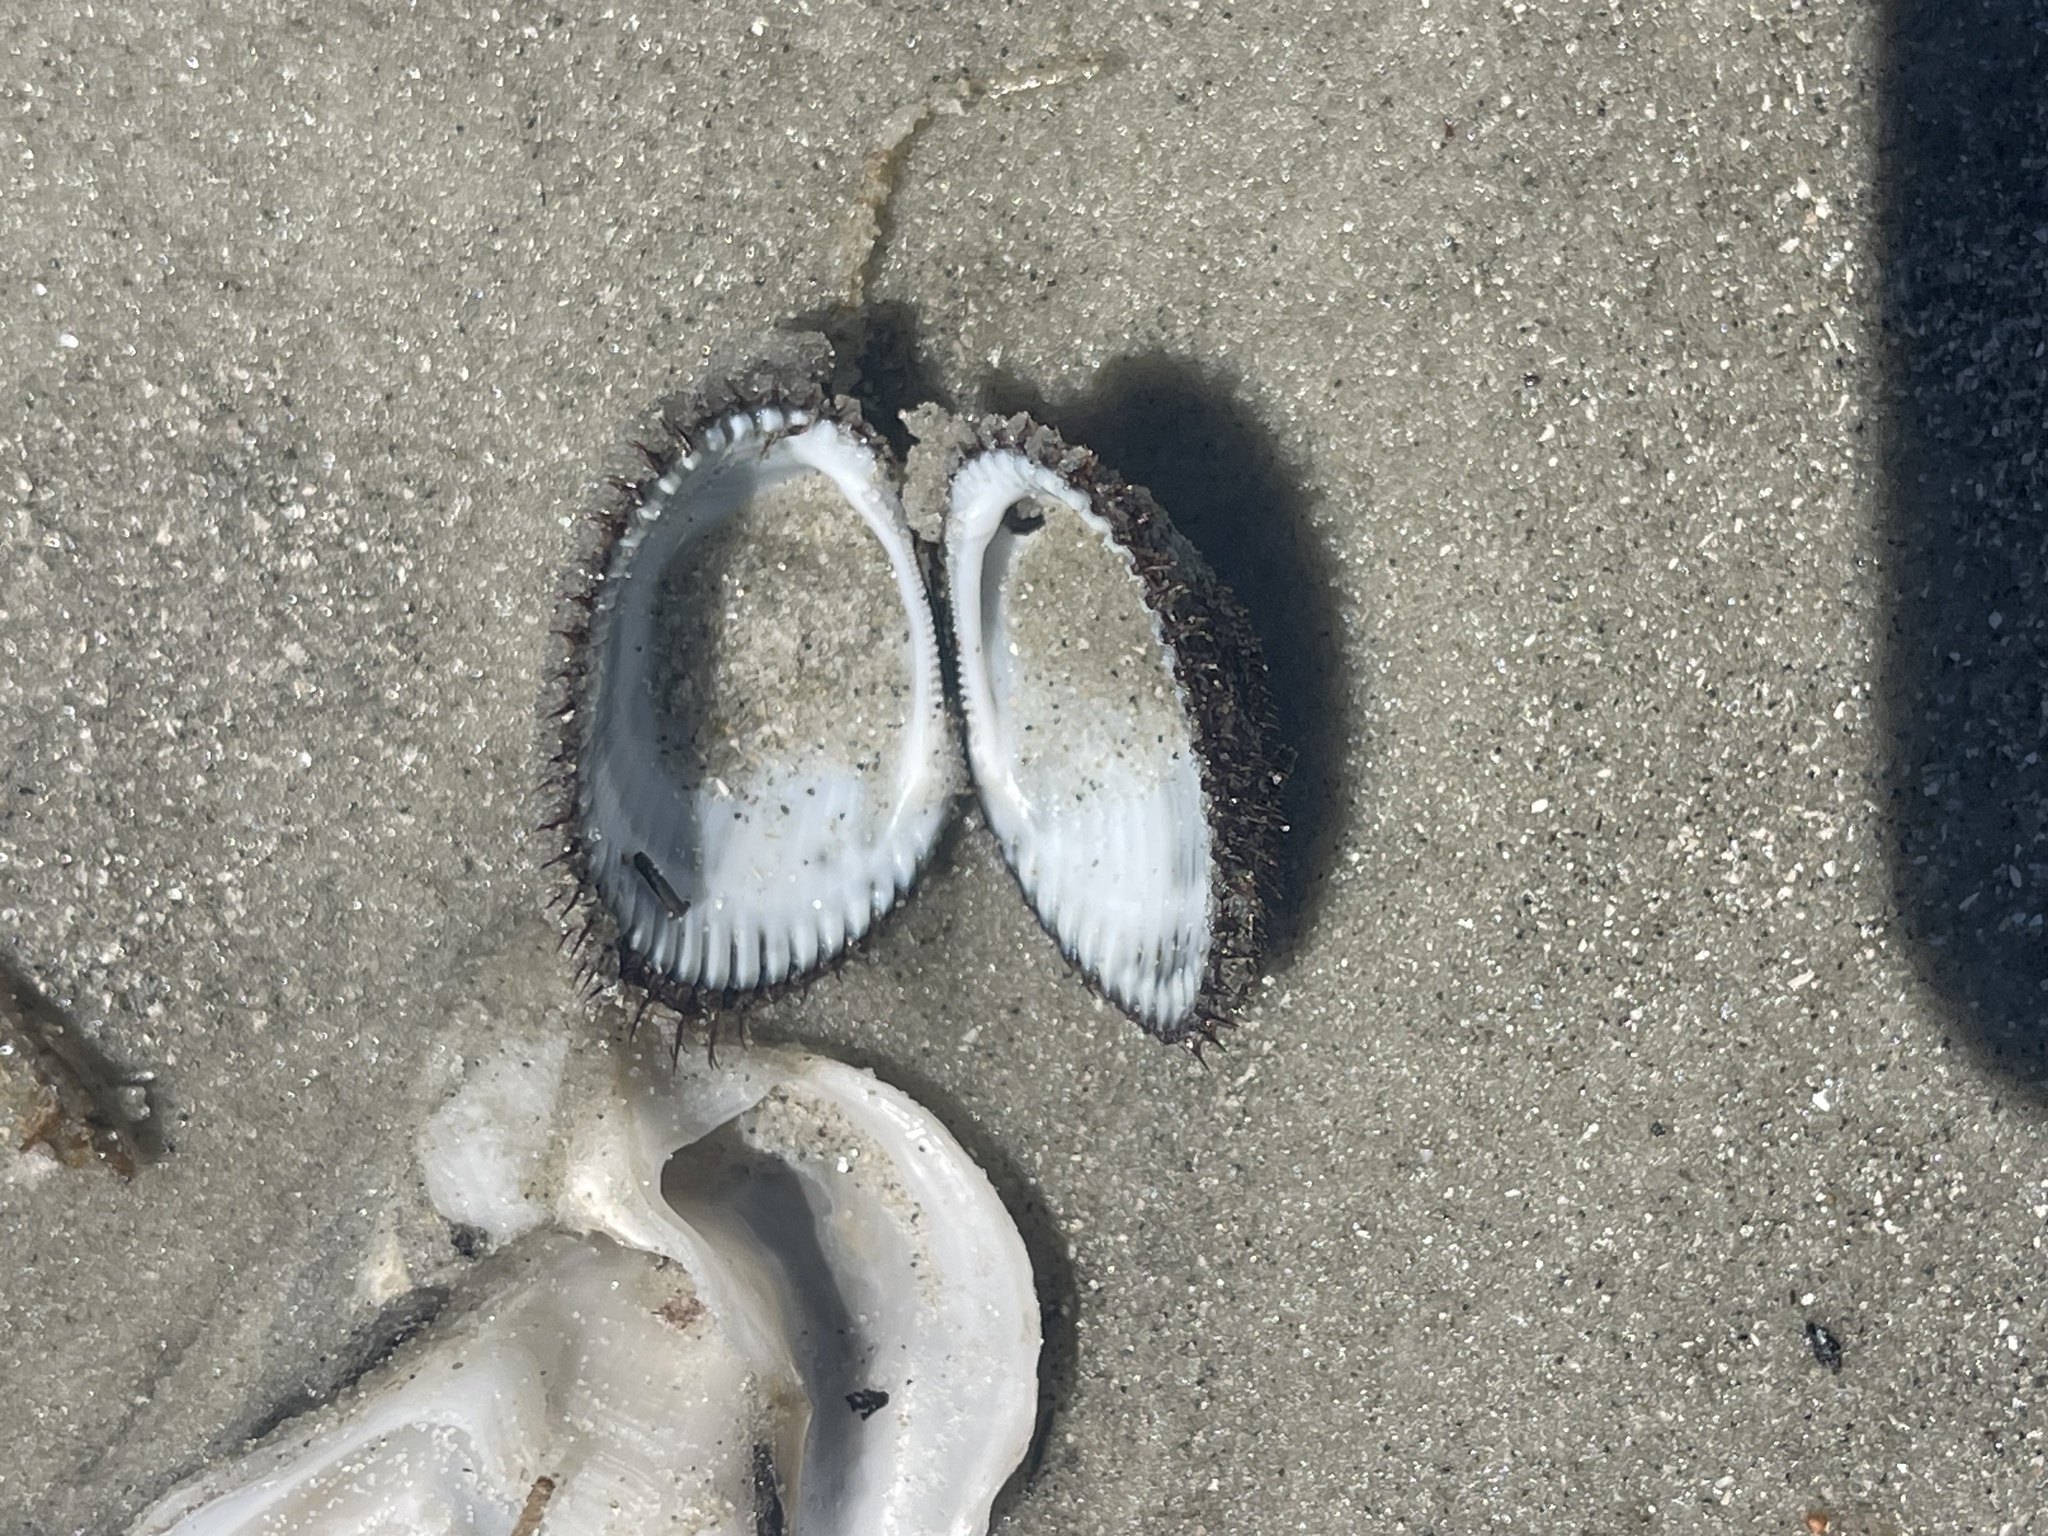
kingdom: Animalia
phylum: Mollusca
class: Bivalvia
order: Arcida
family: Arcidae
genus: Lunarca
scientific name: Lunarca ovalis
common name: Blood ark
